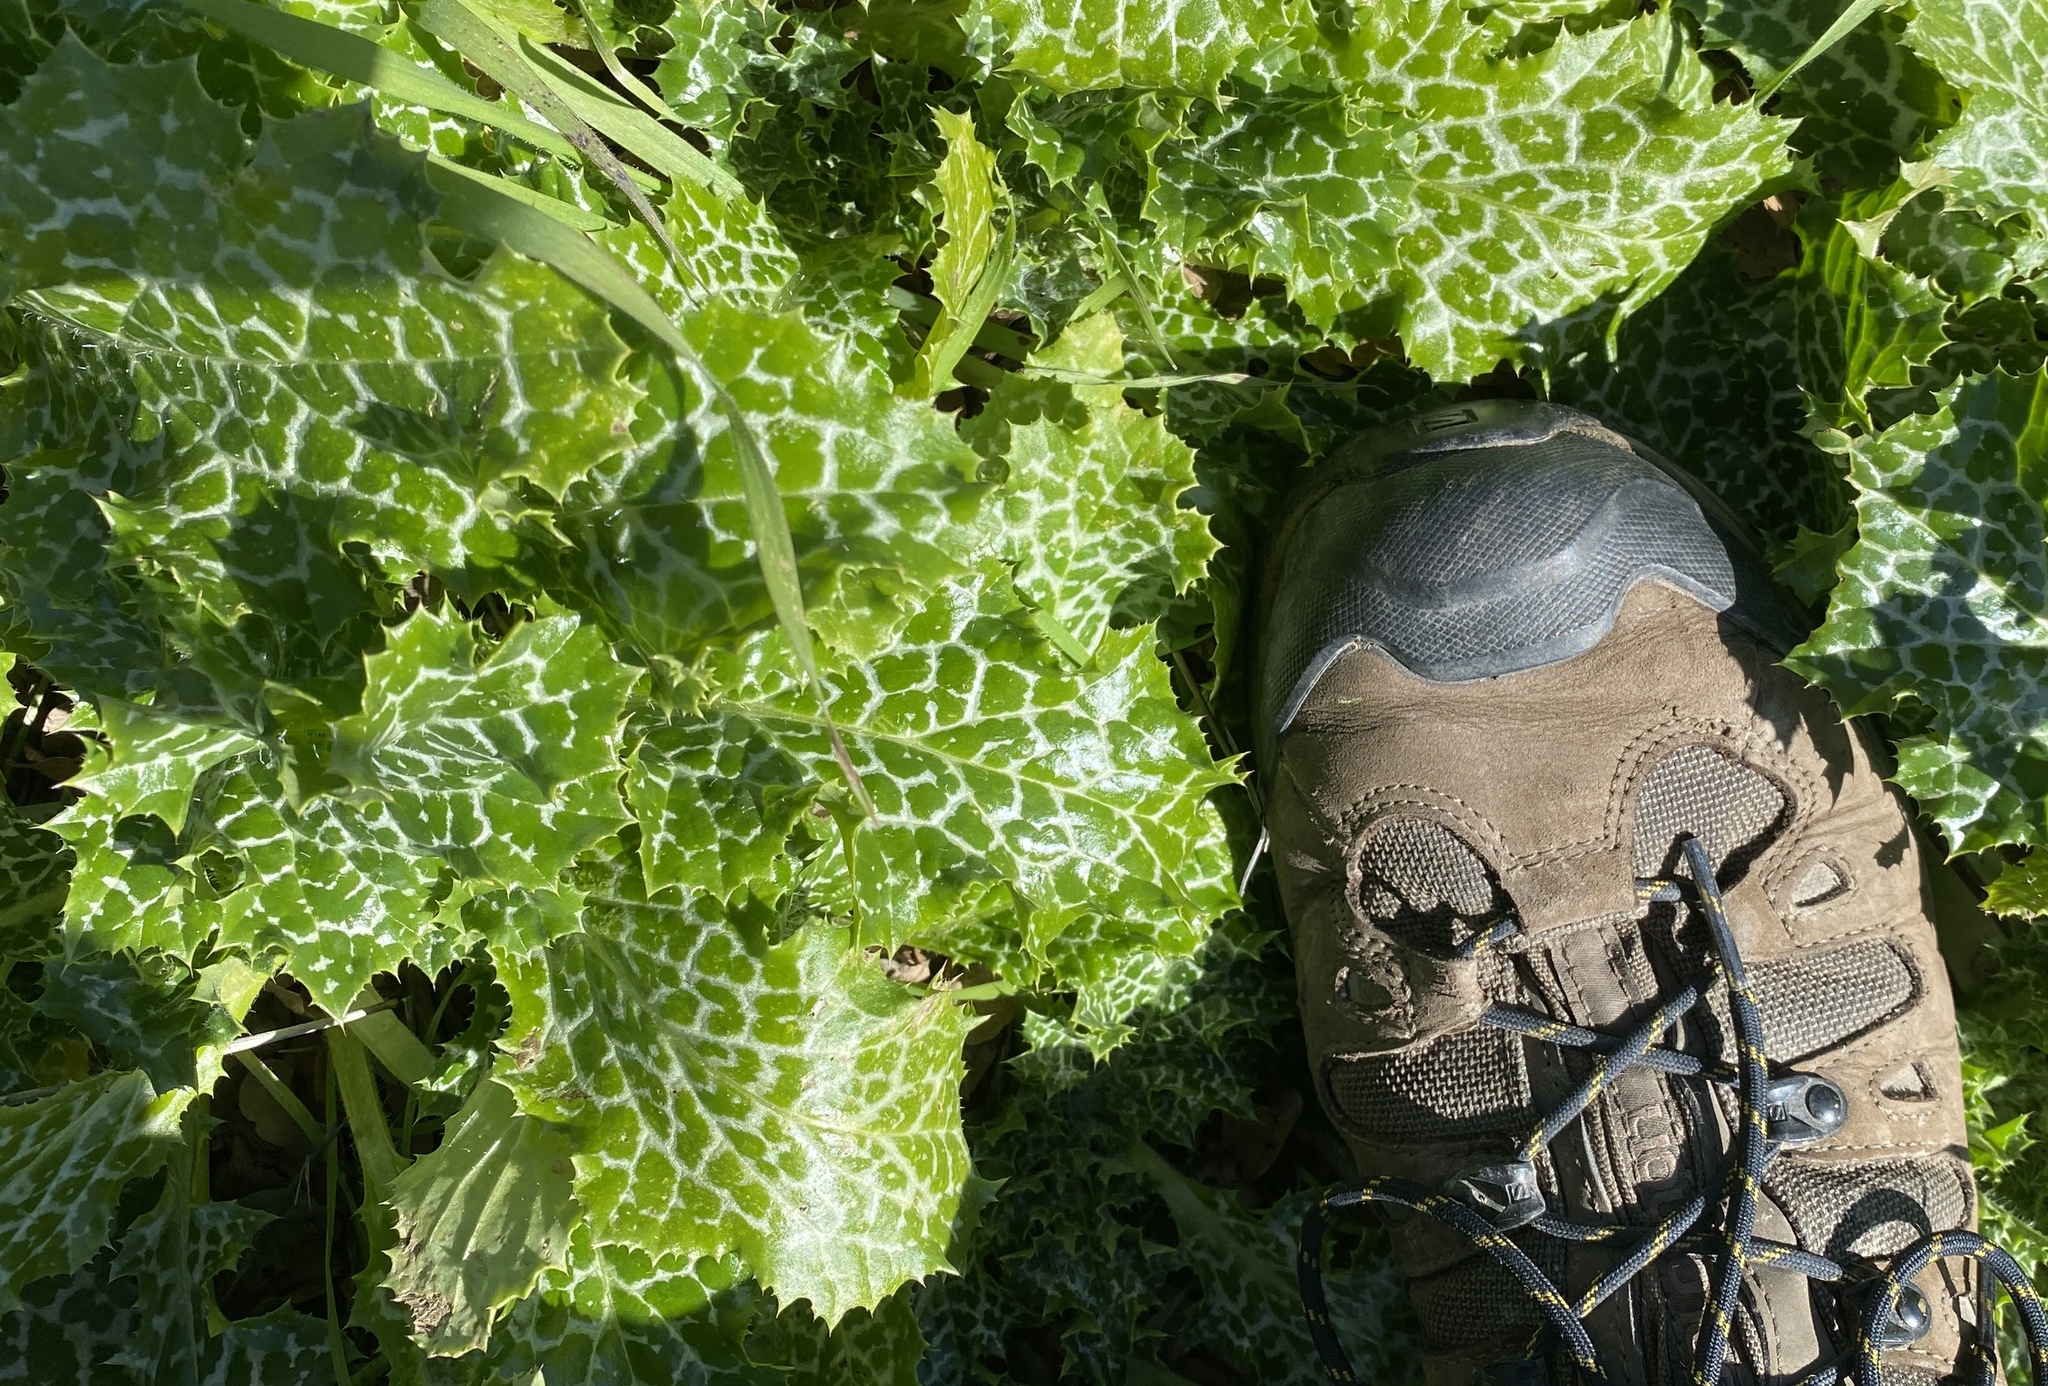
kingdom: Plantae
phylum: Tracheophyta
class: Magnoliopsida
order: Asterales
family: Asteraceae
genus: Silybum
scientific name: Silybum marianum
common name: Milk thistle
